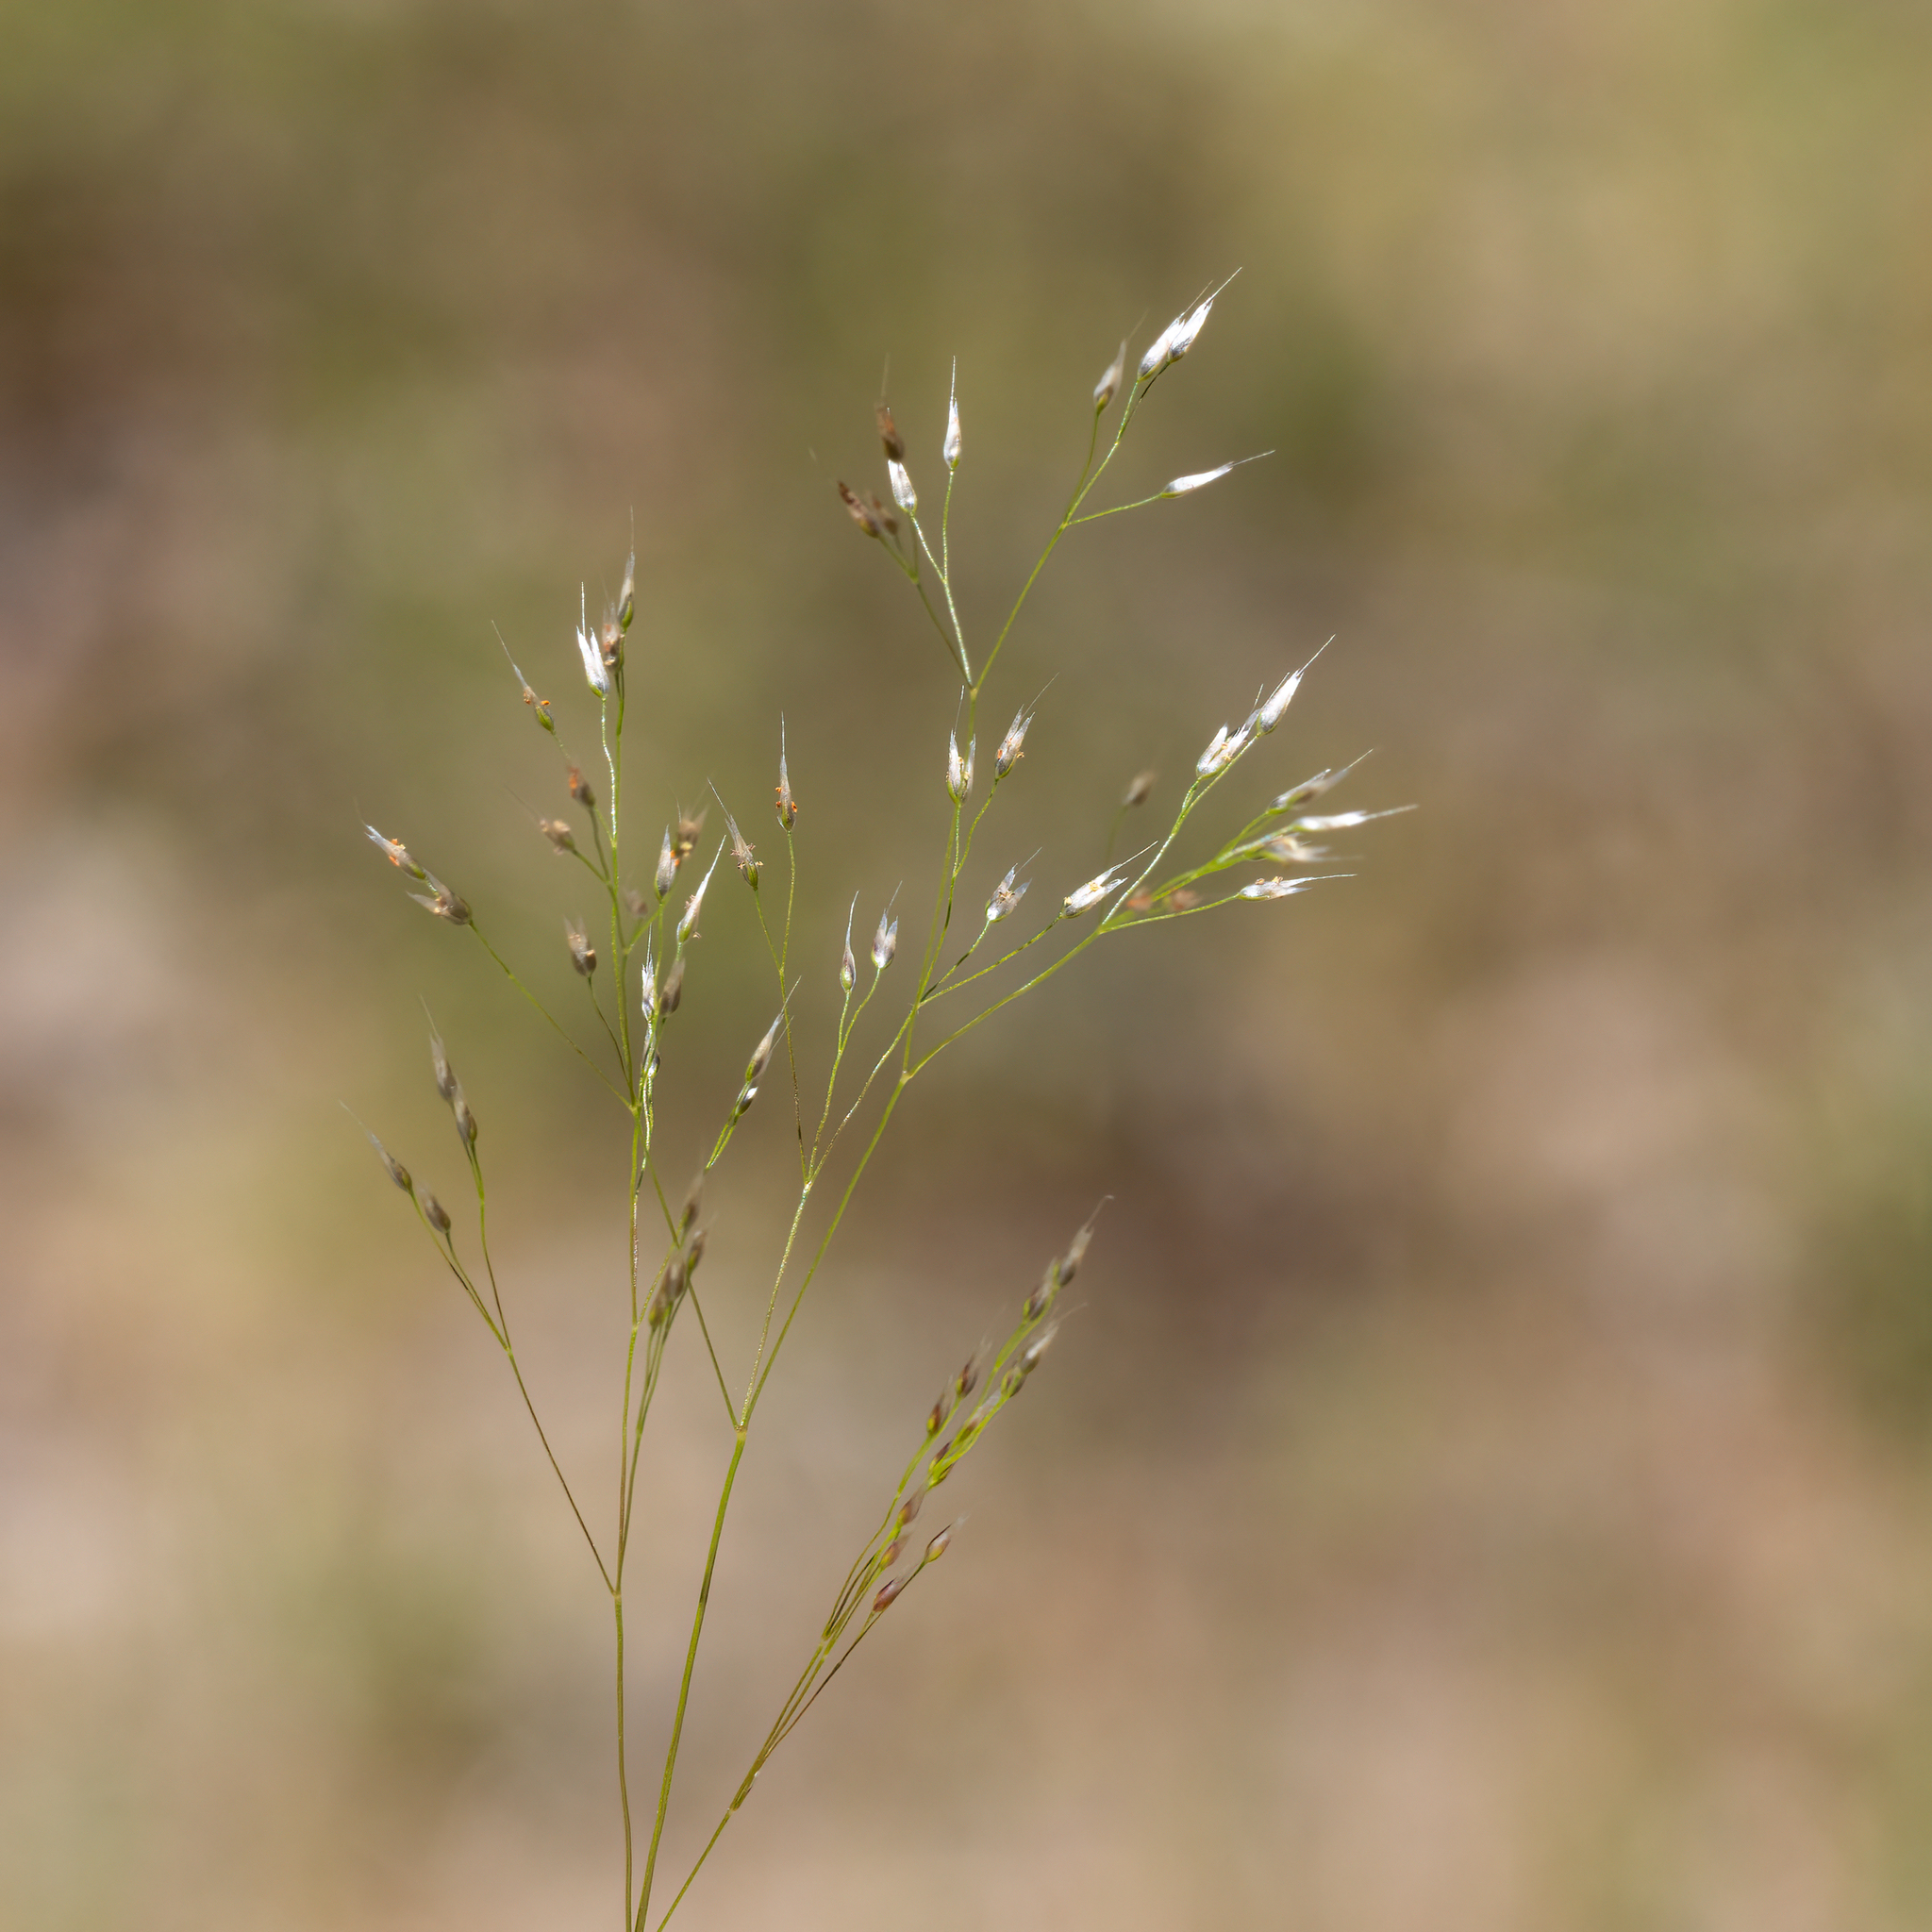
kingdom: Plantae
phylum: Tracheophyta
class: Liliopsida
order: Poales
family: Poaceae
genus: Aira
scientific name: Aira cupaniana
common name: Silver hairgrass
